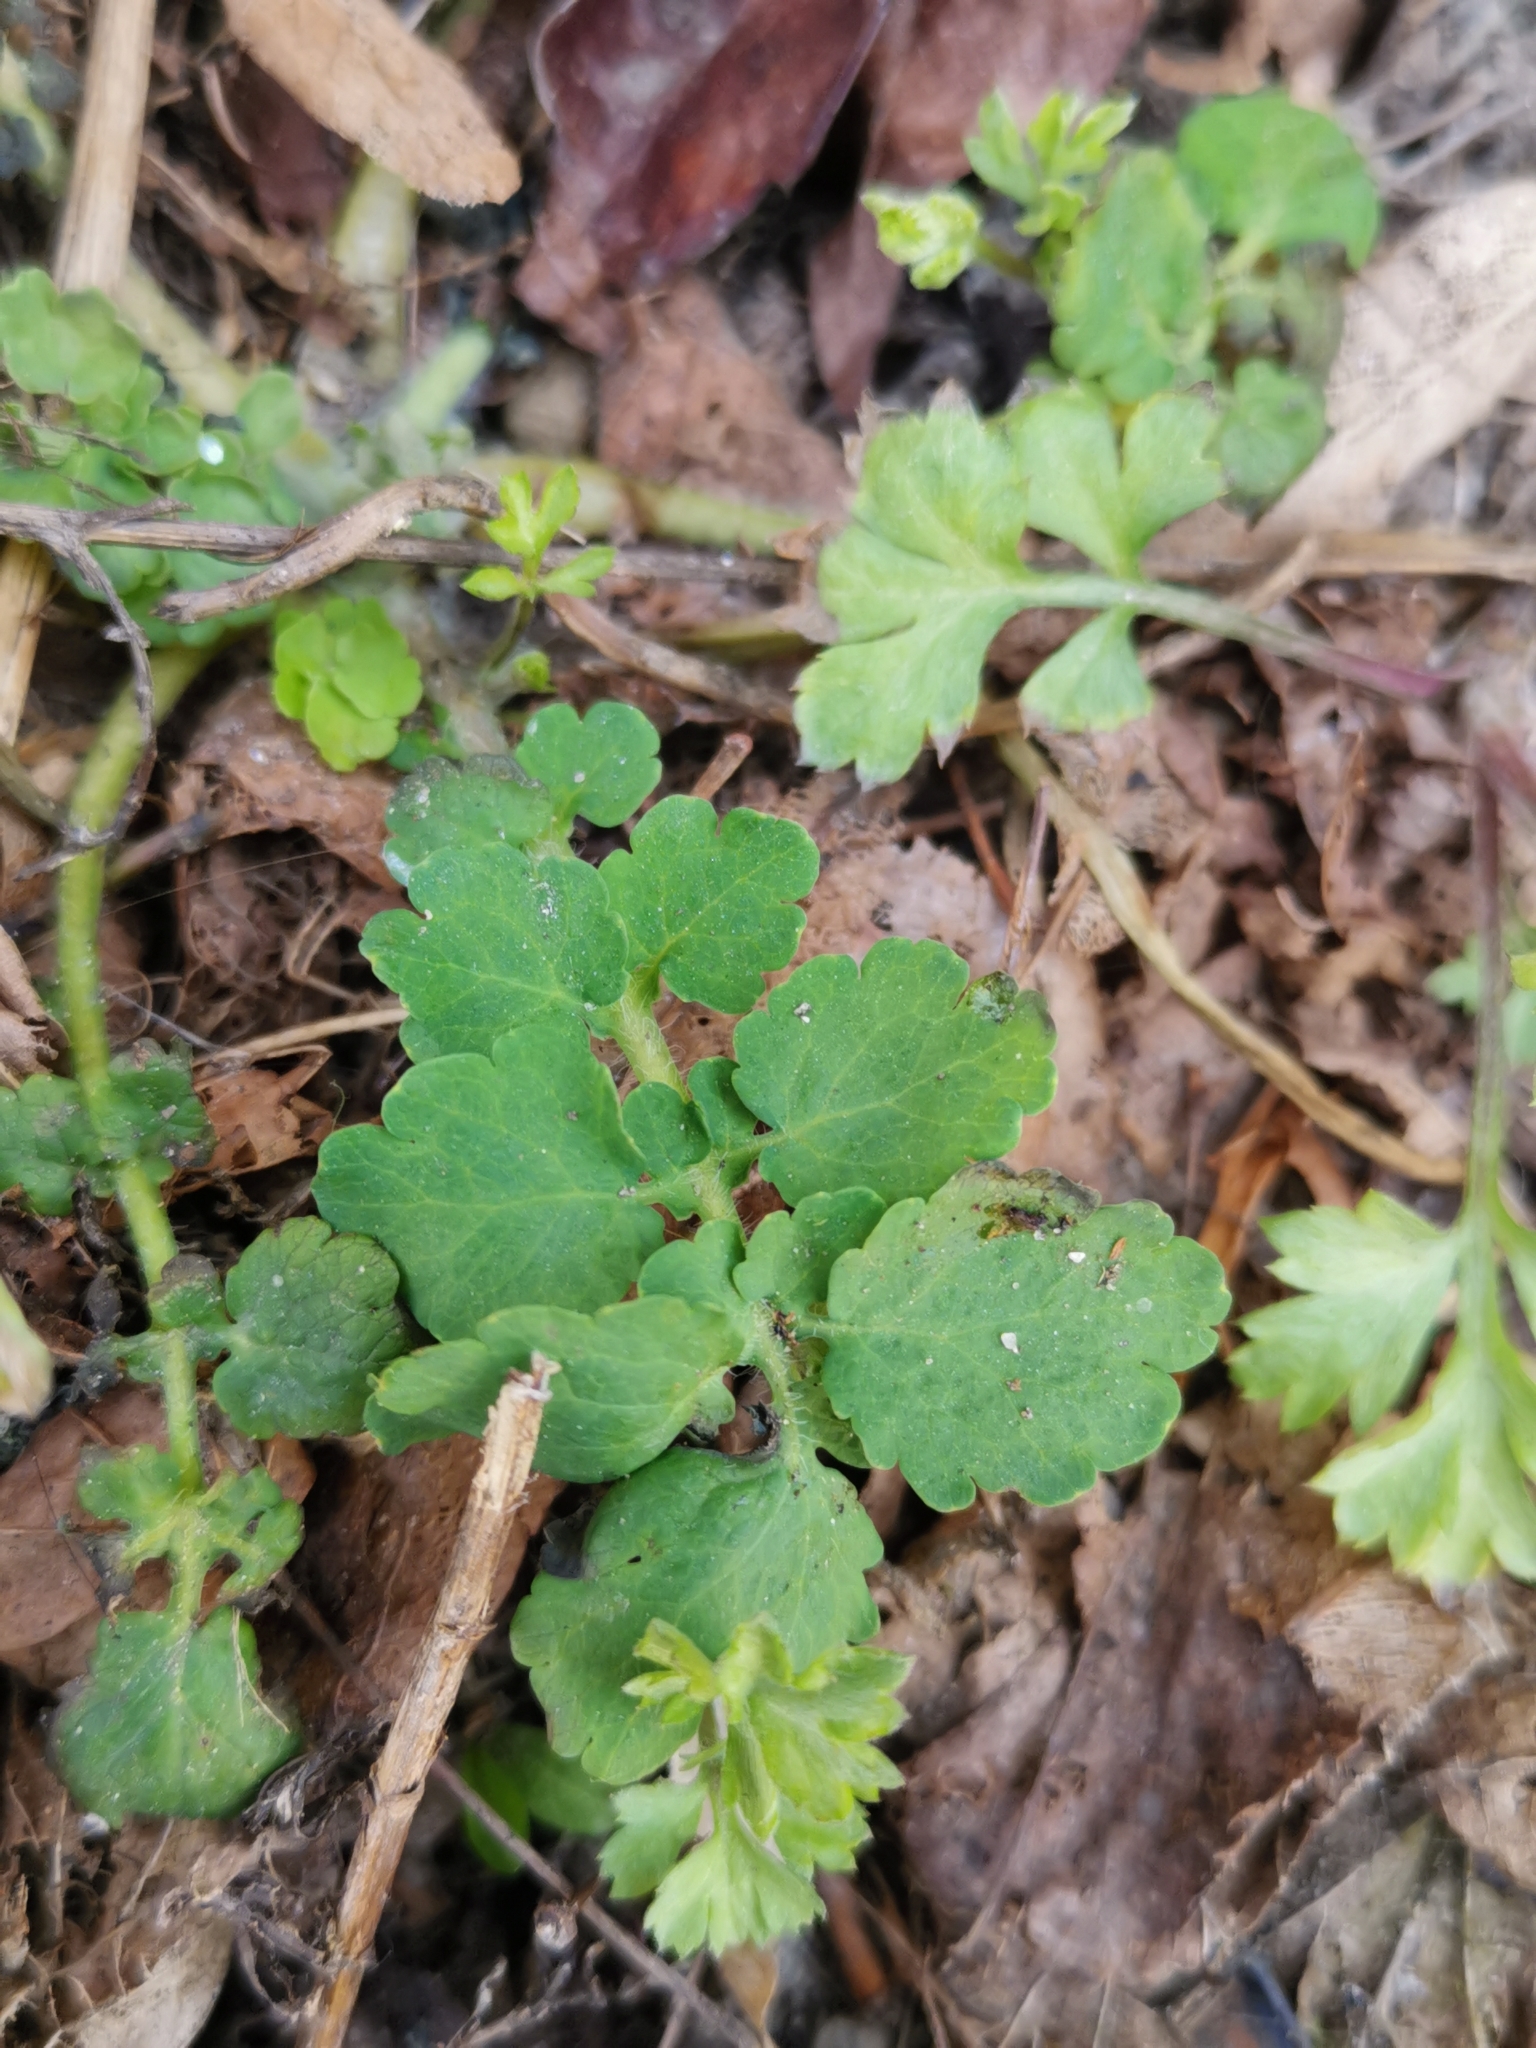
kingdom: Plantae
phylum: Tracheophyta
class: Magnoliopsida
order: Ranunculales
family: Papaveraceae
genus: Chelidonium
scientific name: Chelidonium majus
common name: Greater celandine
